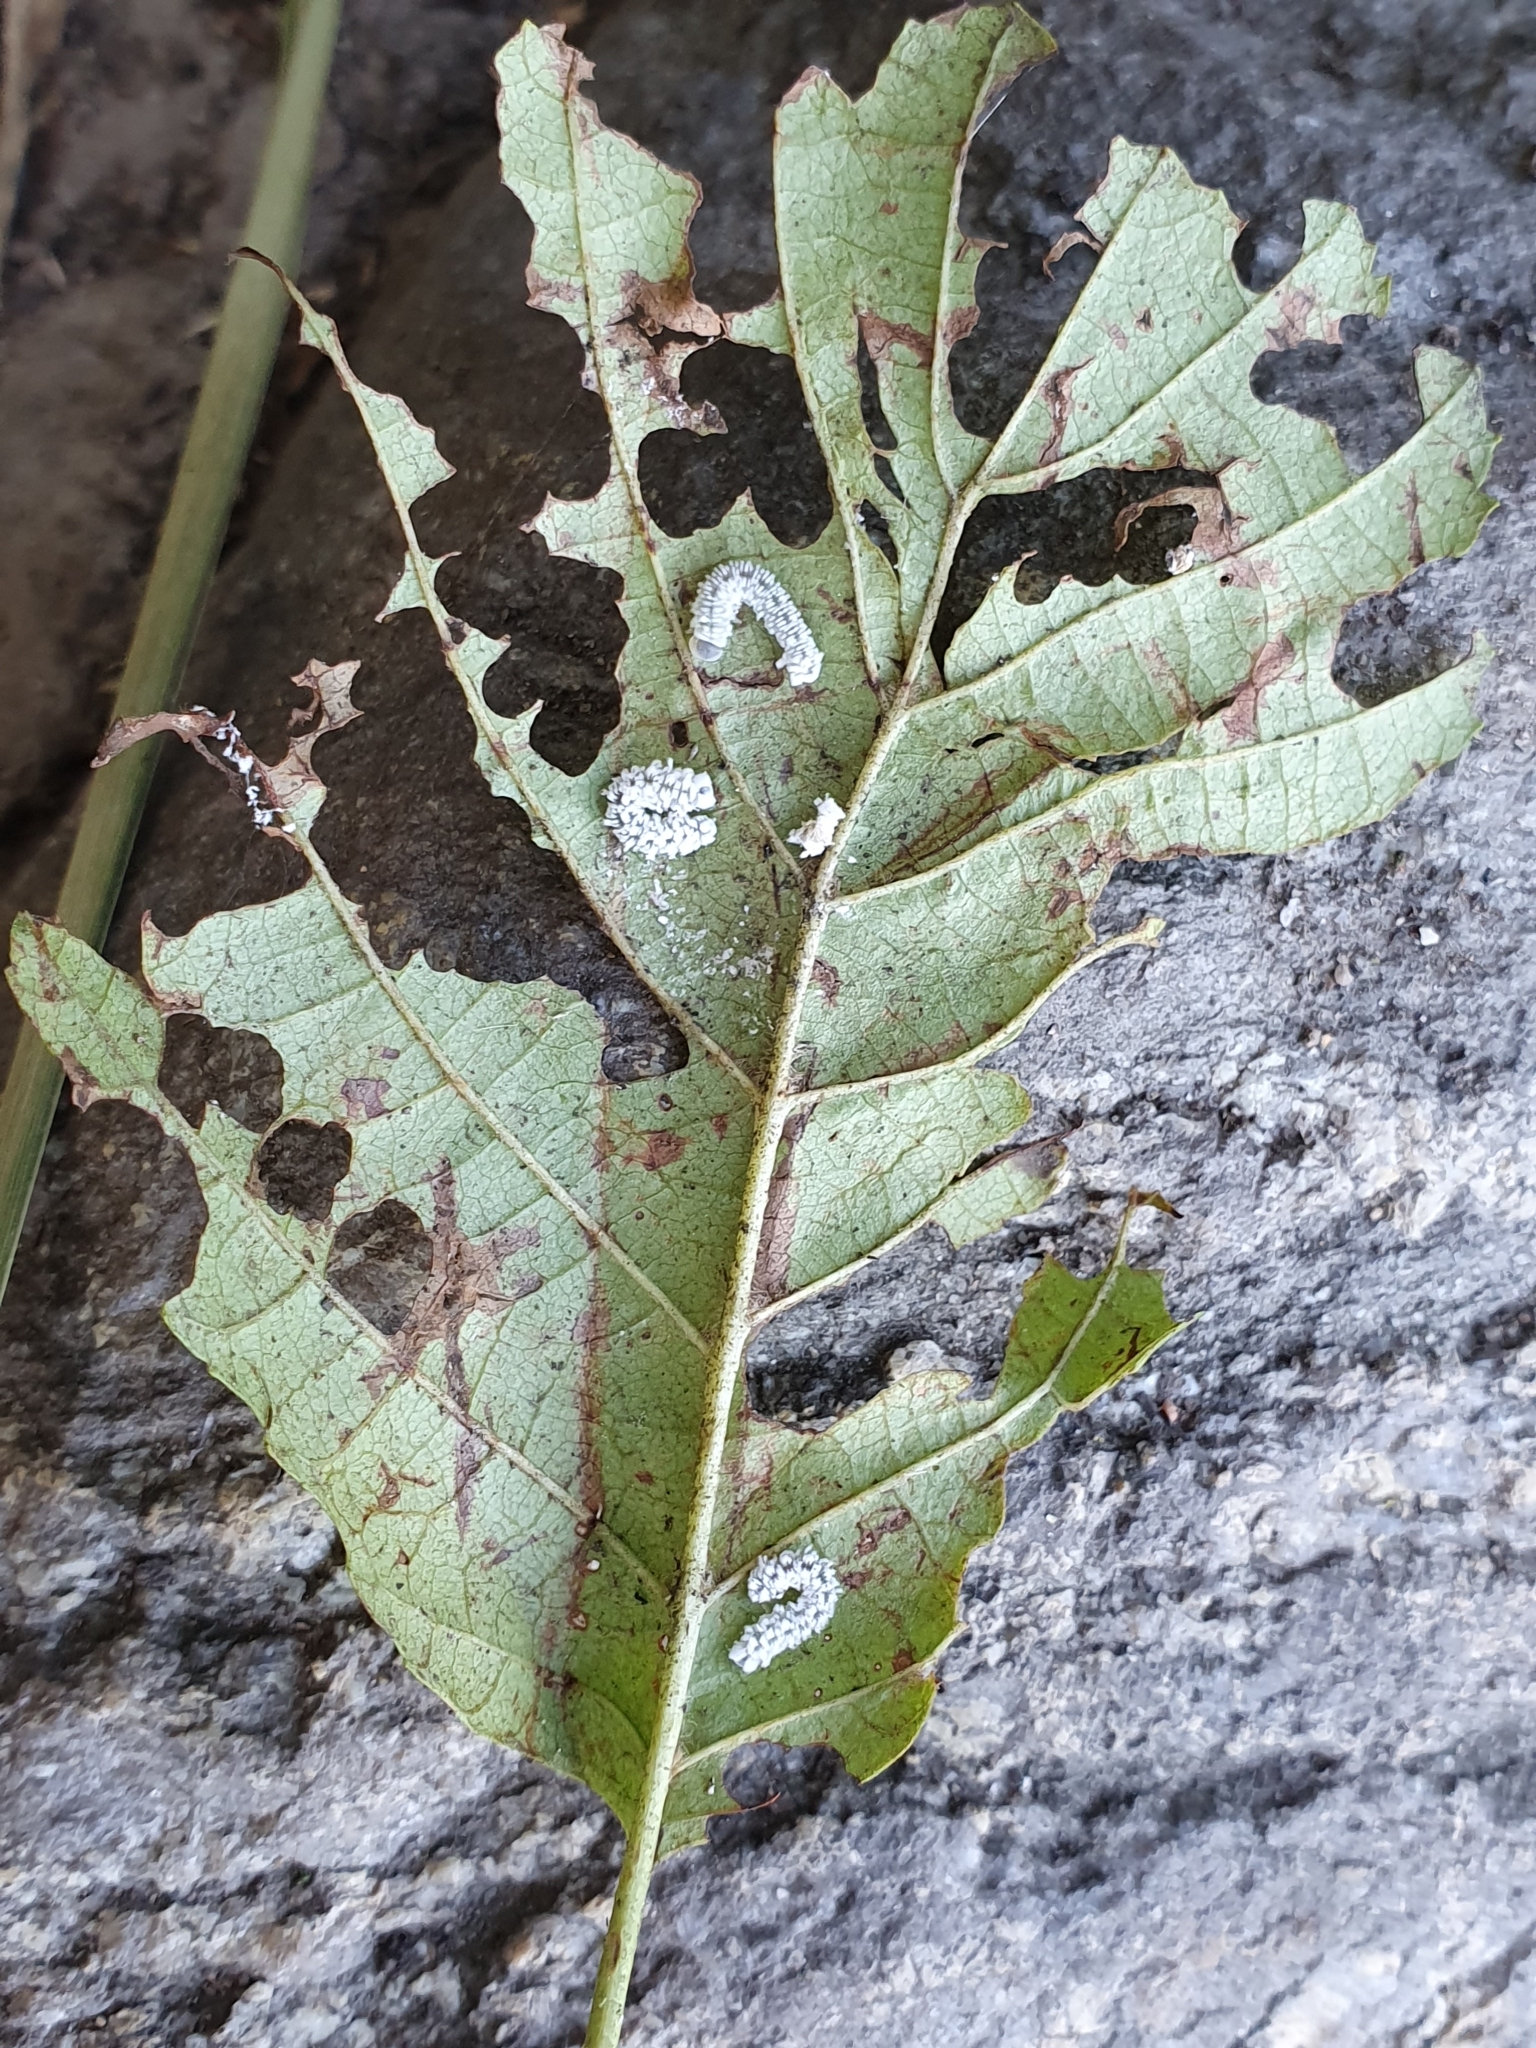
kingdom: Animalia
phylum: Arthropoda
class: Insecta
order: Hymenoptera
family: Tenthredinidae
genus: Eriocampa
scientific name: Eriocampa ovata
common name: Alder wooly sawfly
